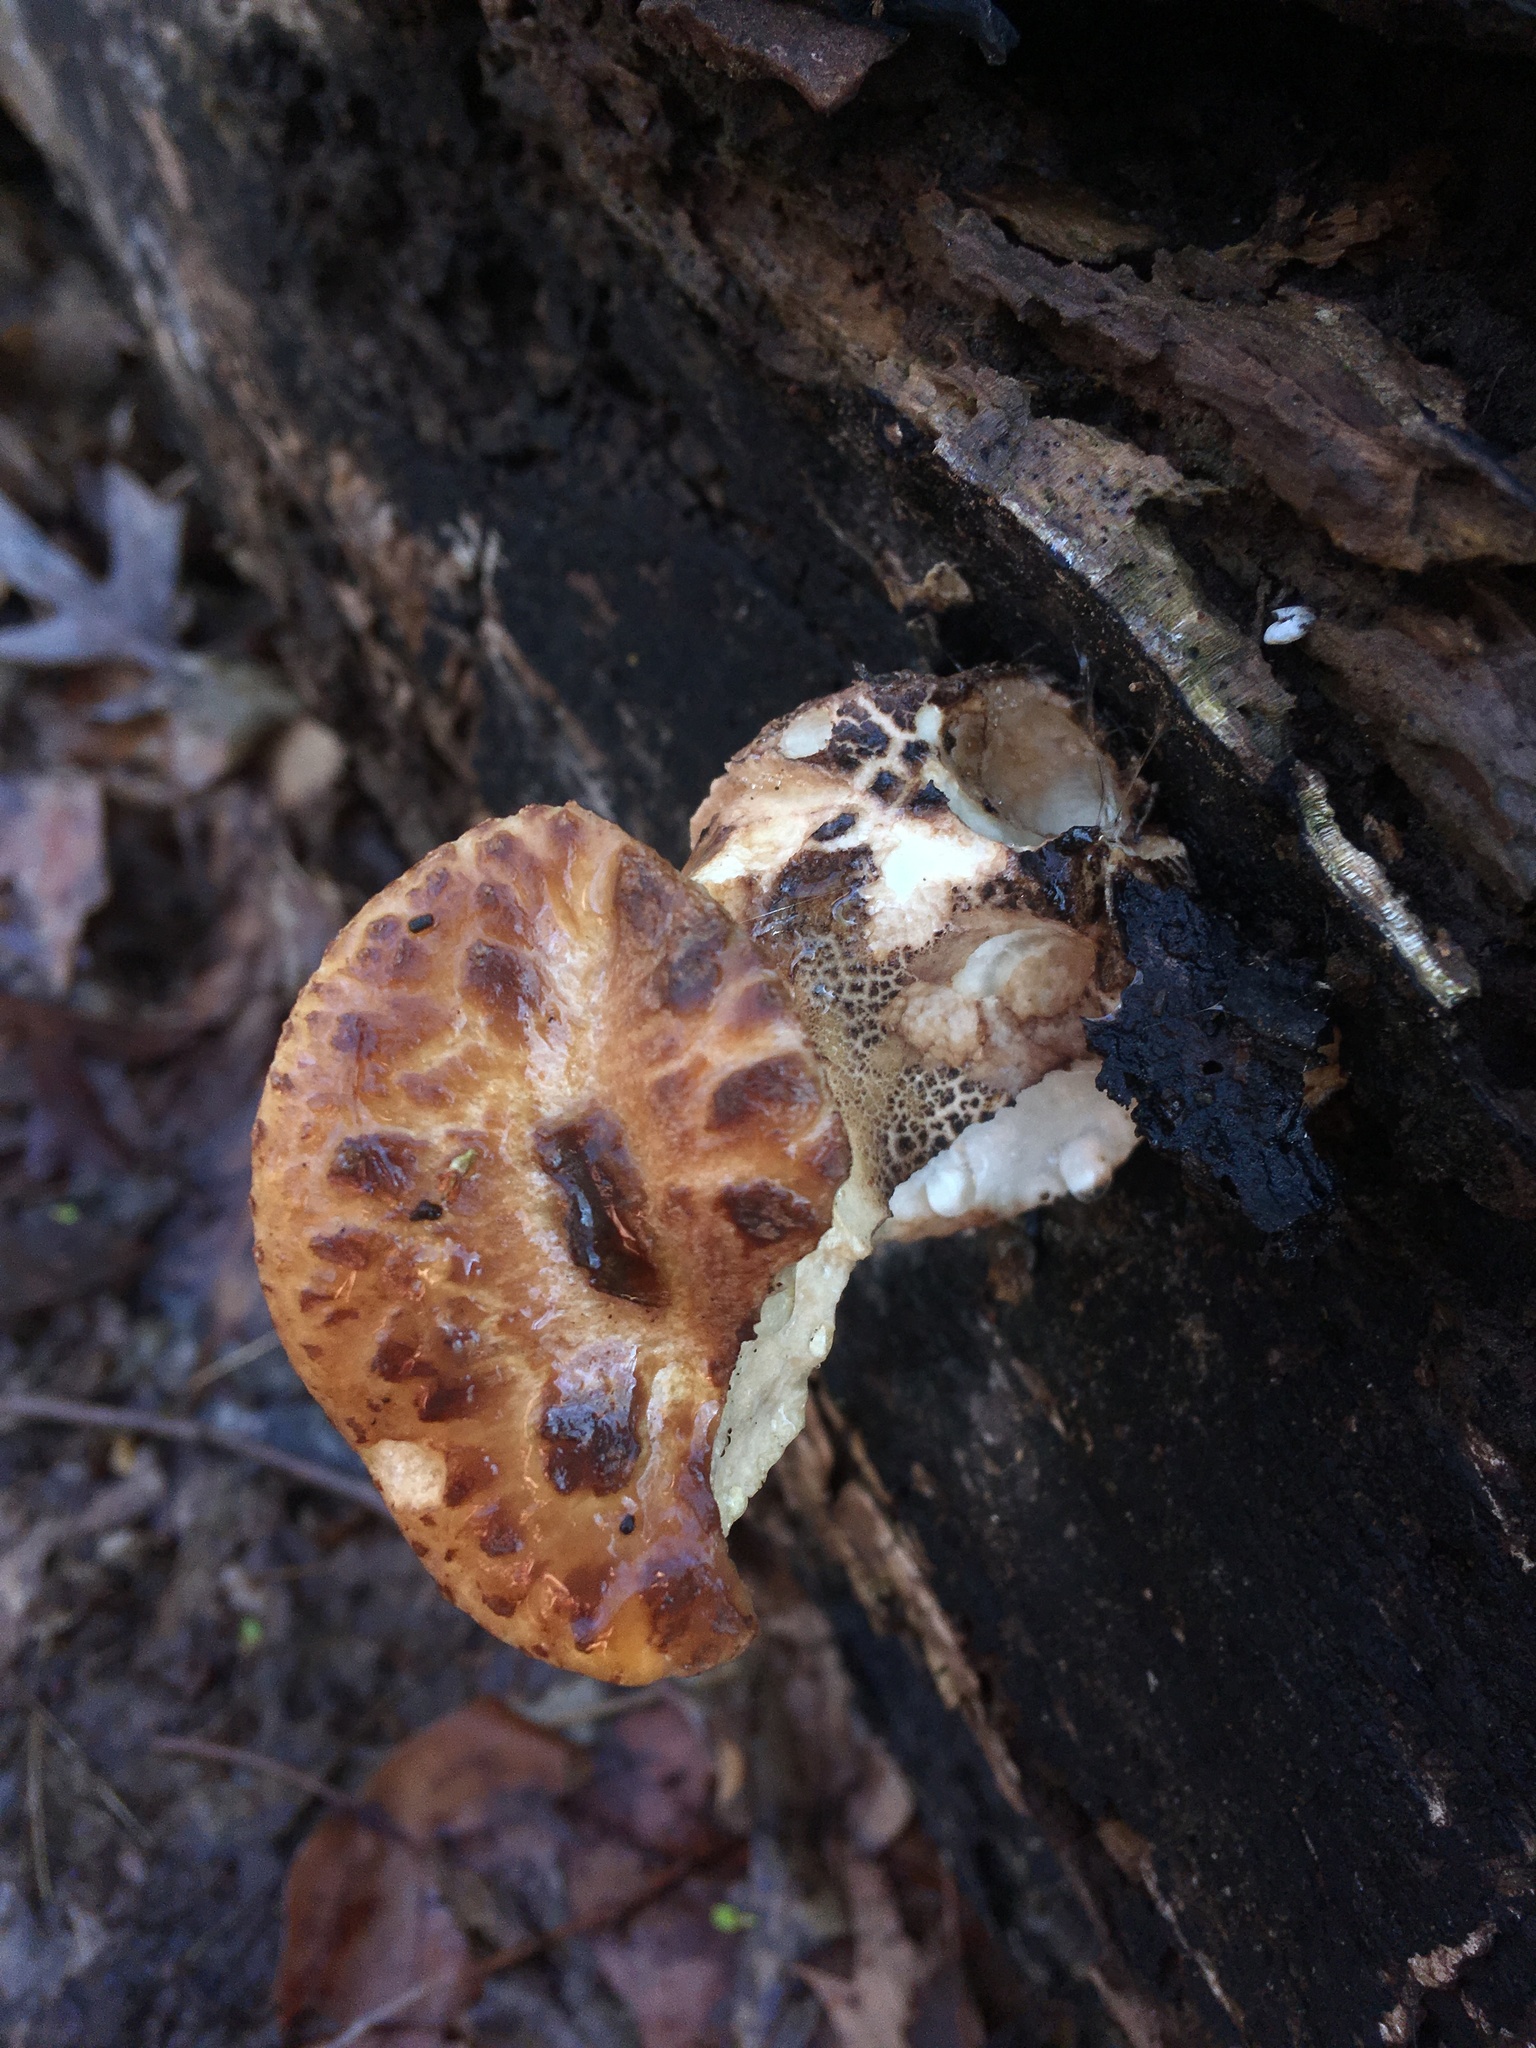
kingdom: Fungi
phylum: Basidiomycota
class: Agaricomycetes
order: Polyporales
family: Polyporaceae
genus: Cerioporus
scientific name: Cerioporus squamosus
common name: Dryad's saddle
